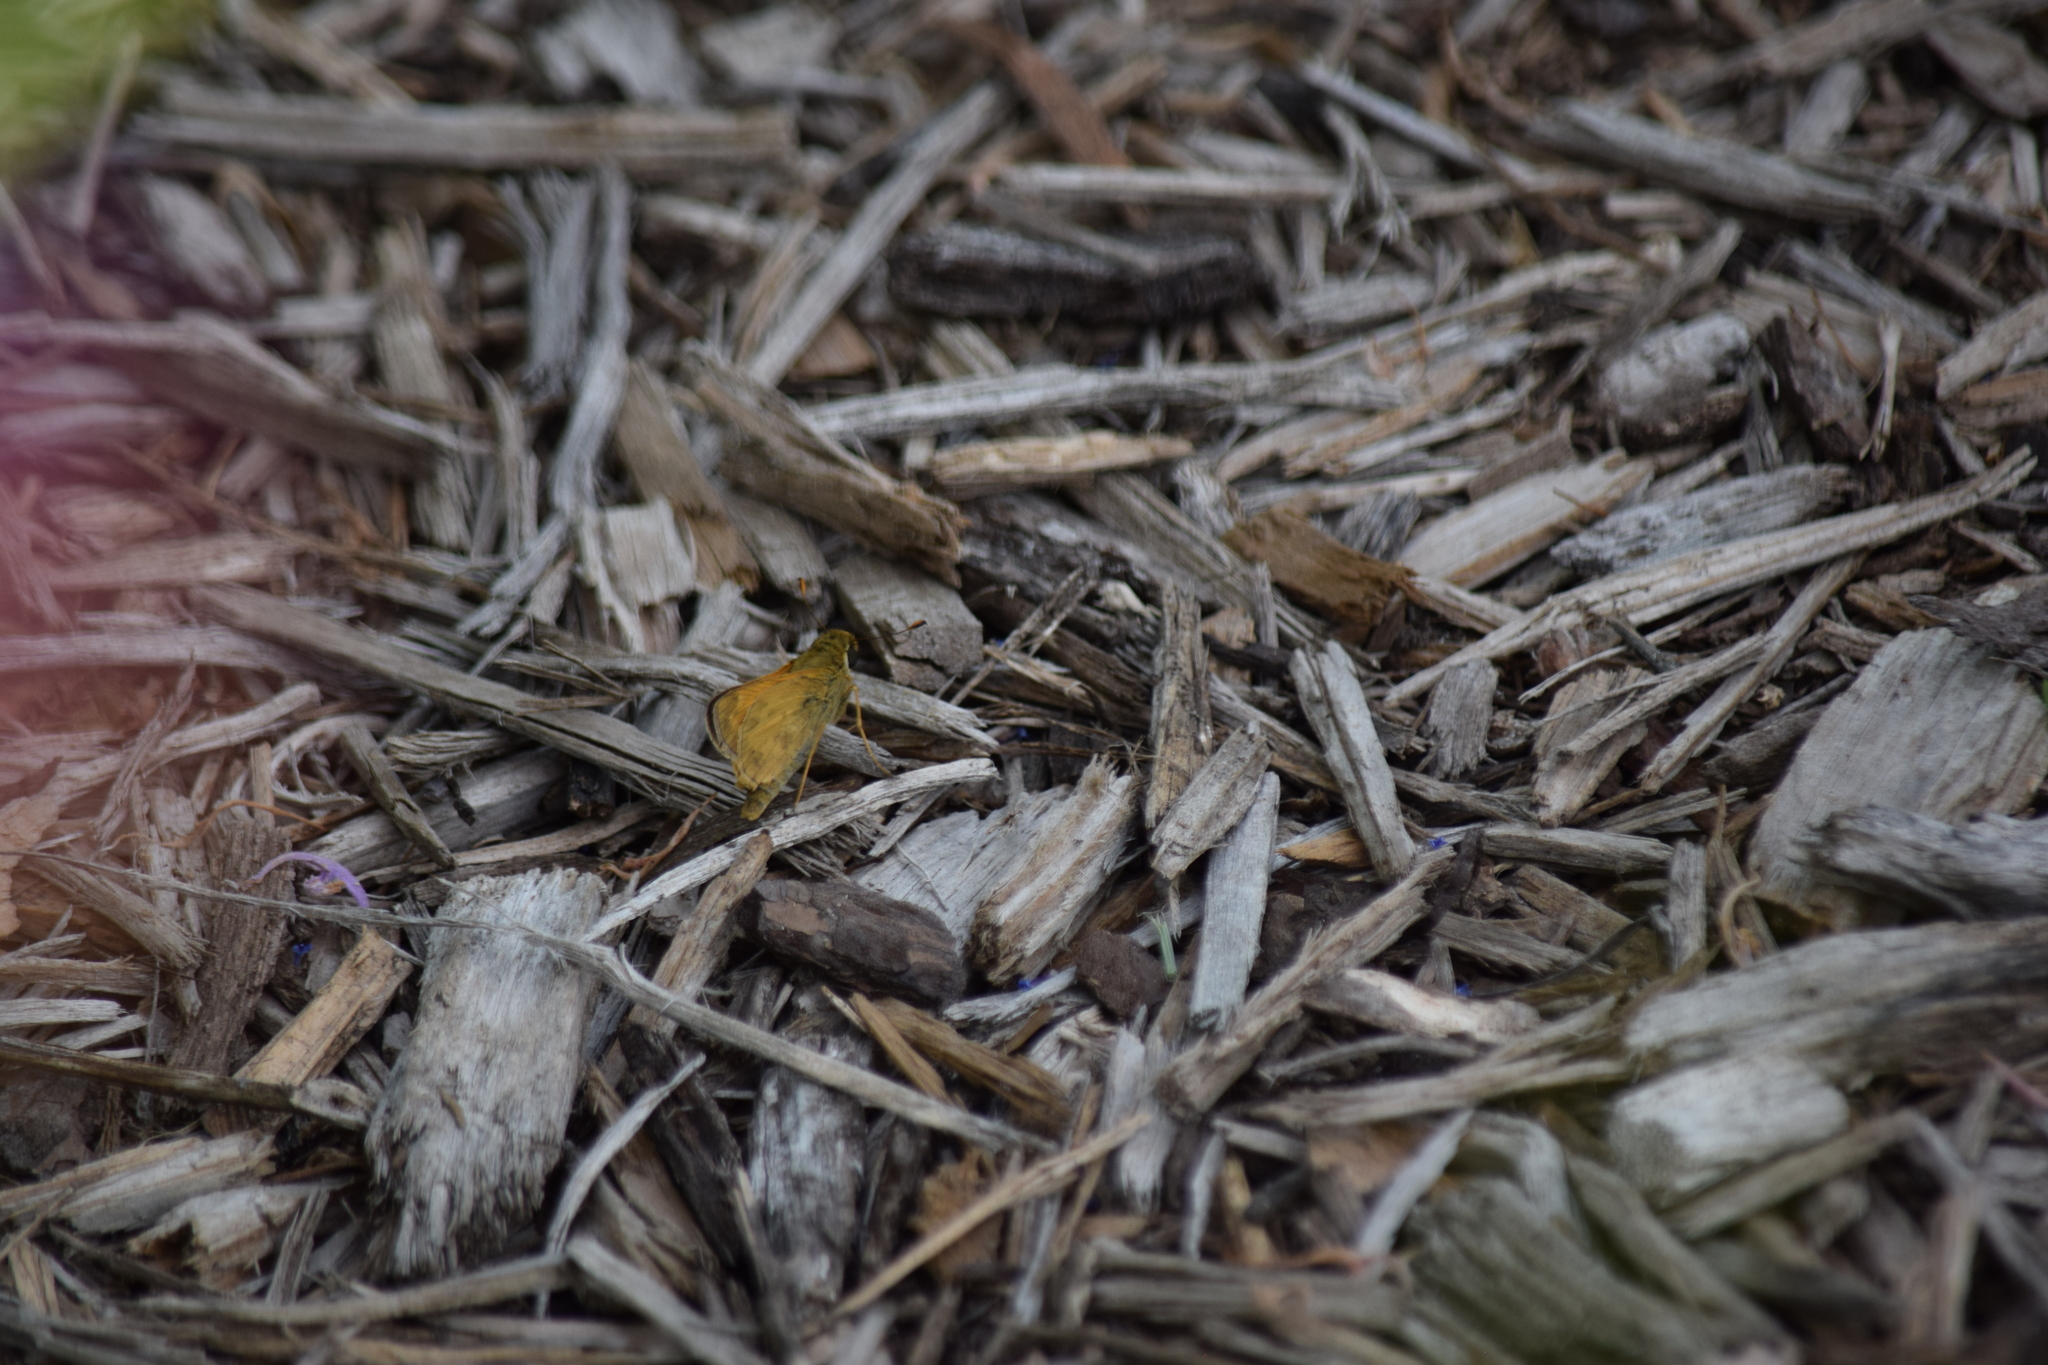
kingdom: Animalia
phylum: Arthropoda
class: Insecta
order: Lepidoptera
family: Hesperiidae
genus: Atalopedes
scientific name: Atalopedes
